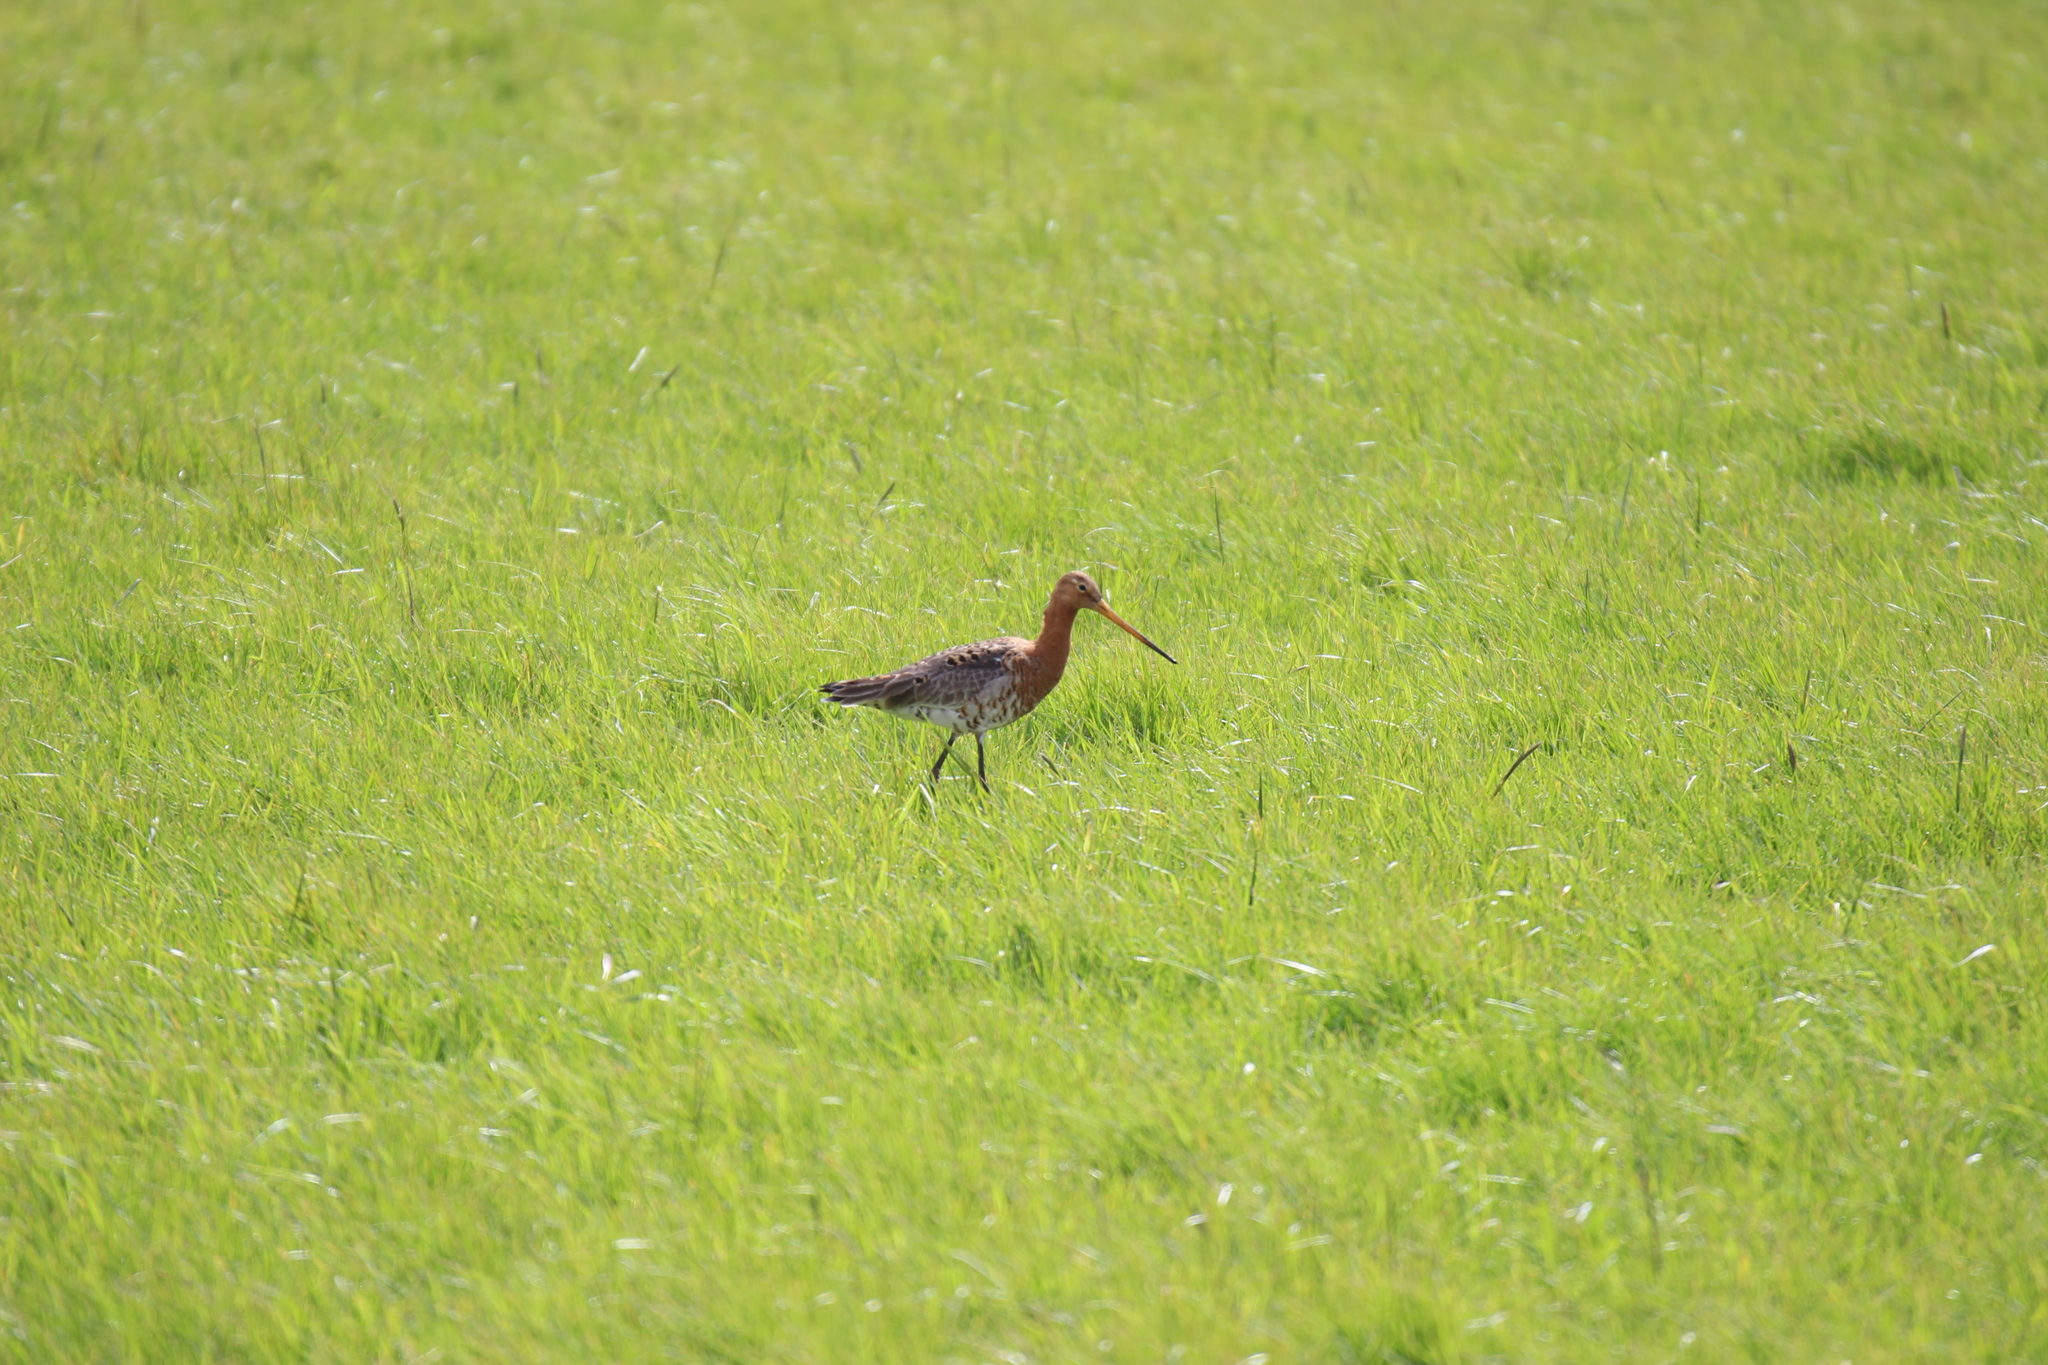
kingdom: Animalia
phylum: Chordata
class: Aves
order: Charadriiformes
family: Scolopacidae
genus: Limosa
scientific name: Limosa limosa
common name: Black-tailed godwit
